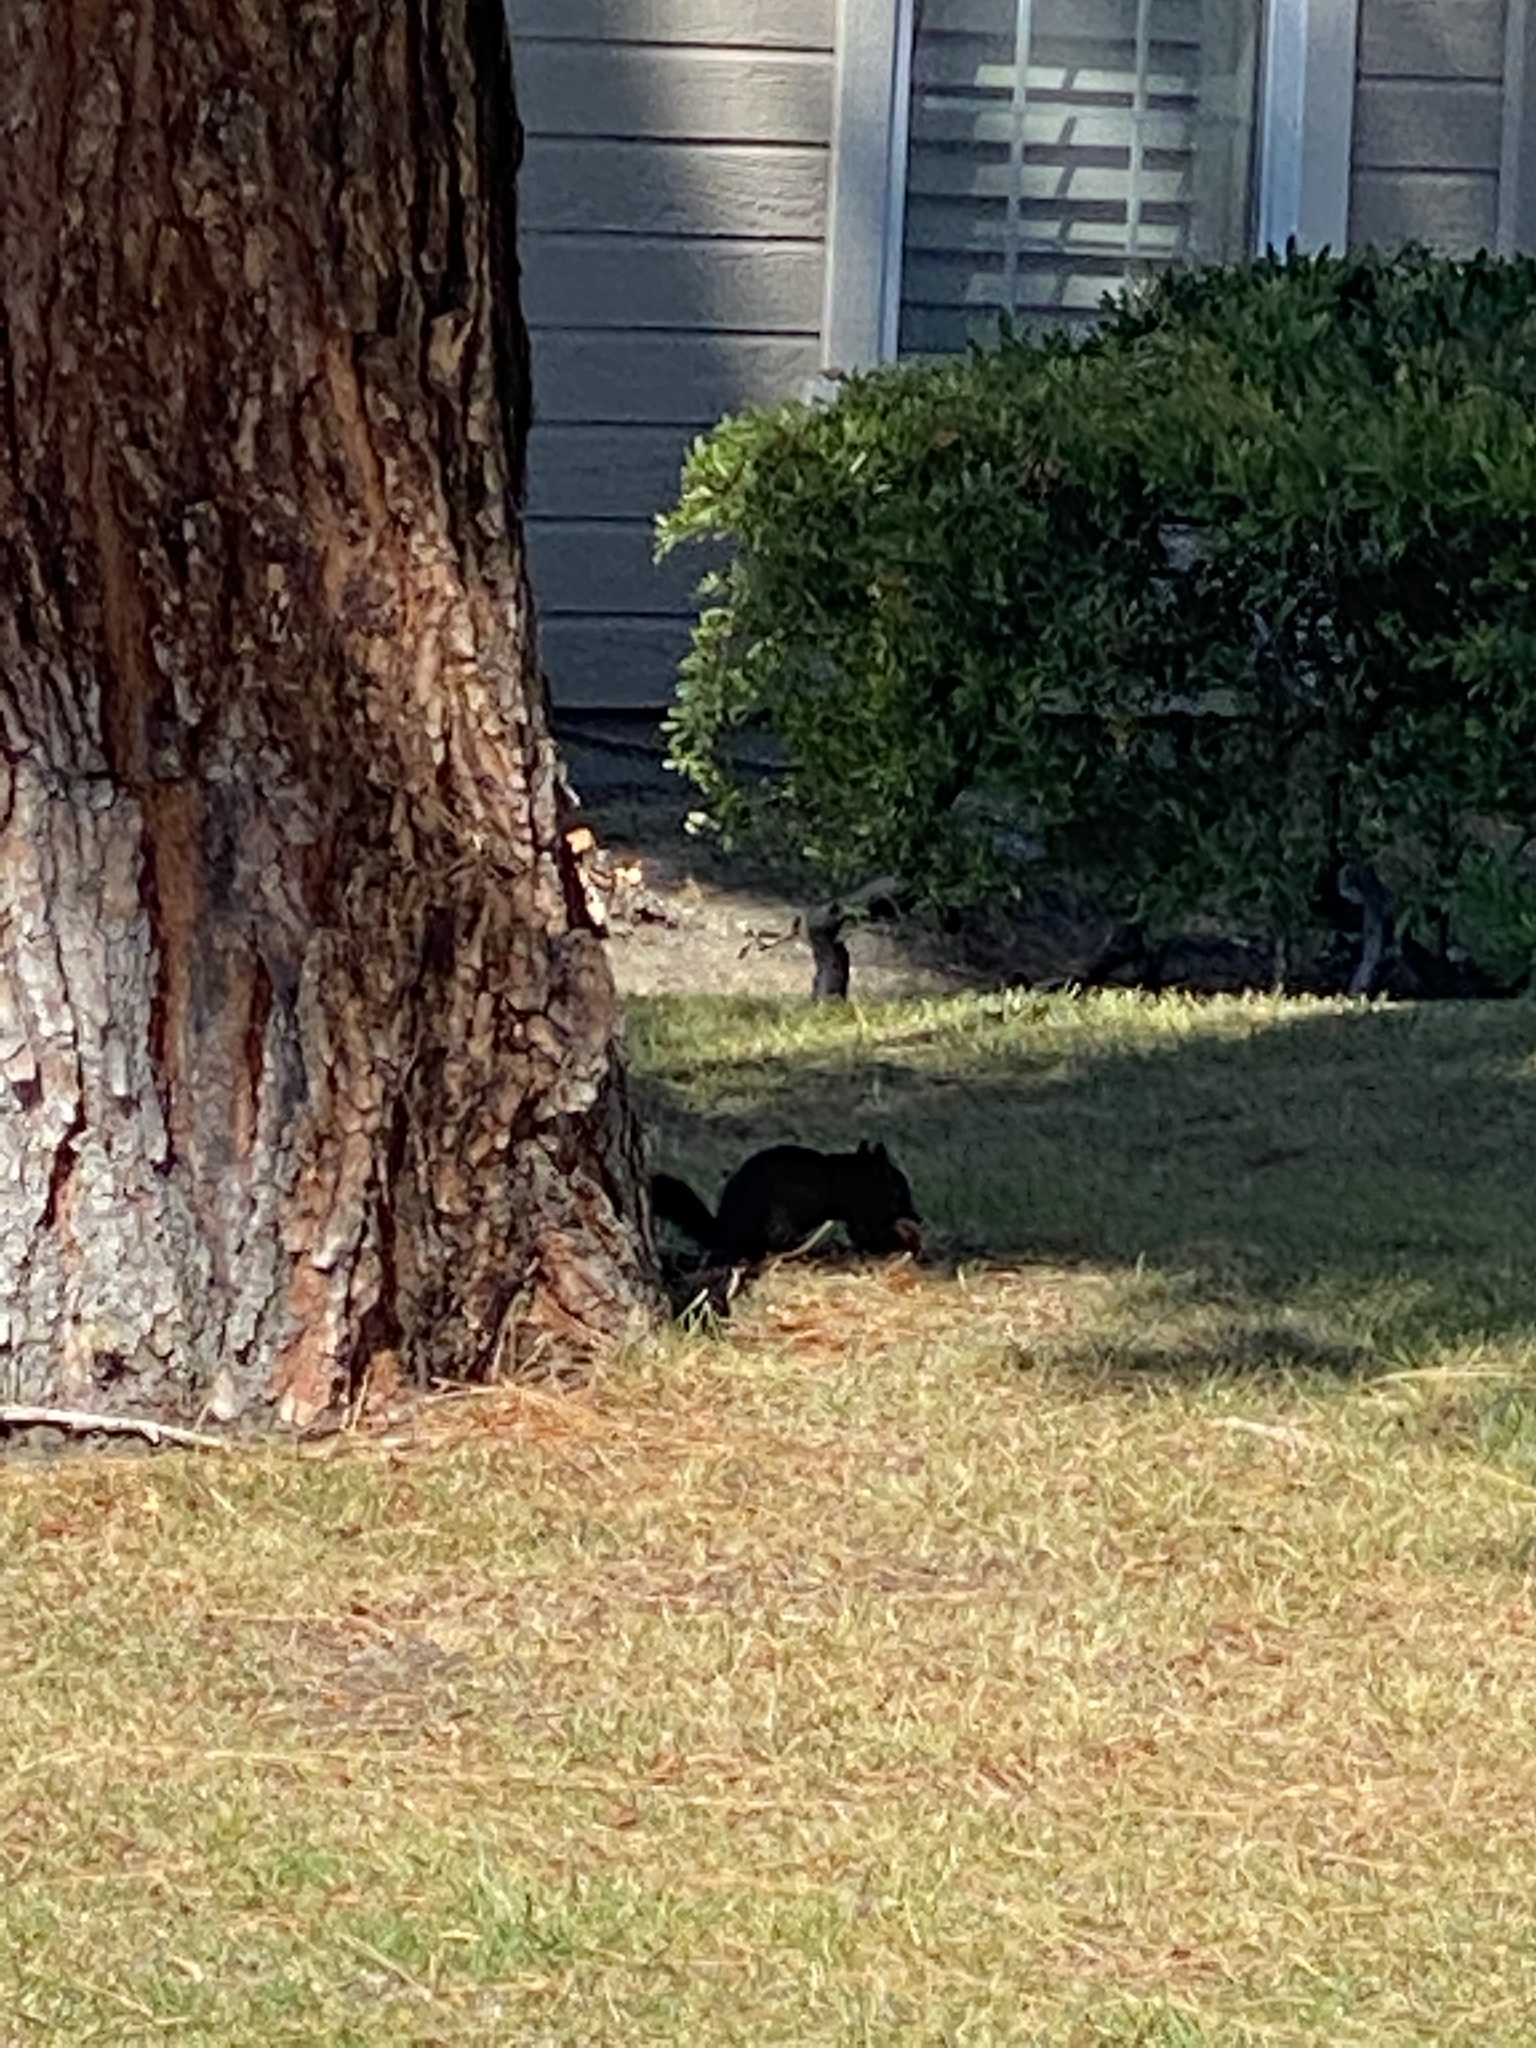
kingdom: Animalia
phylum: Chordata
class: Mammalia
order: Rodentia
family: Sciuridae
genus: Sciurus
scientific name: Sciurus carolinensis
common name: Eastern gray squirrel
